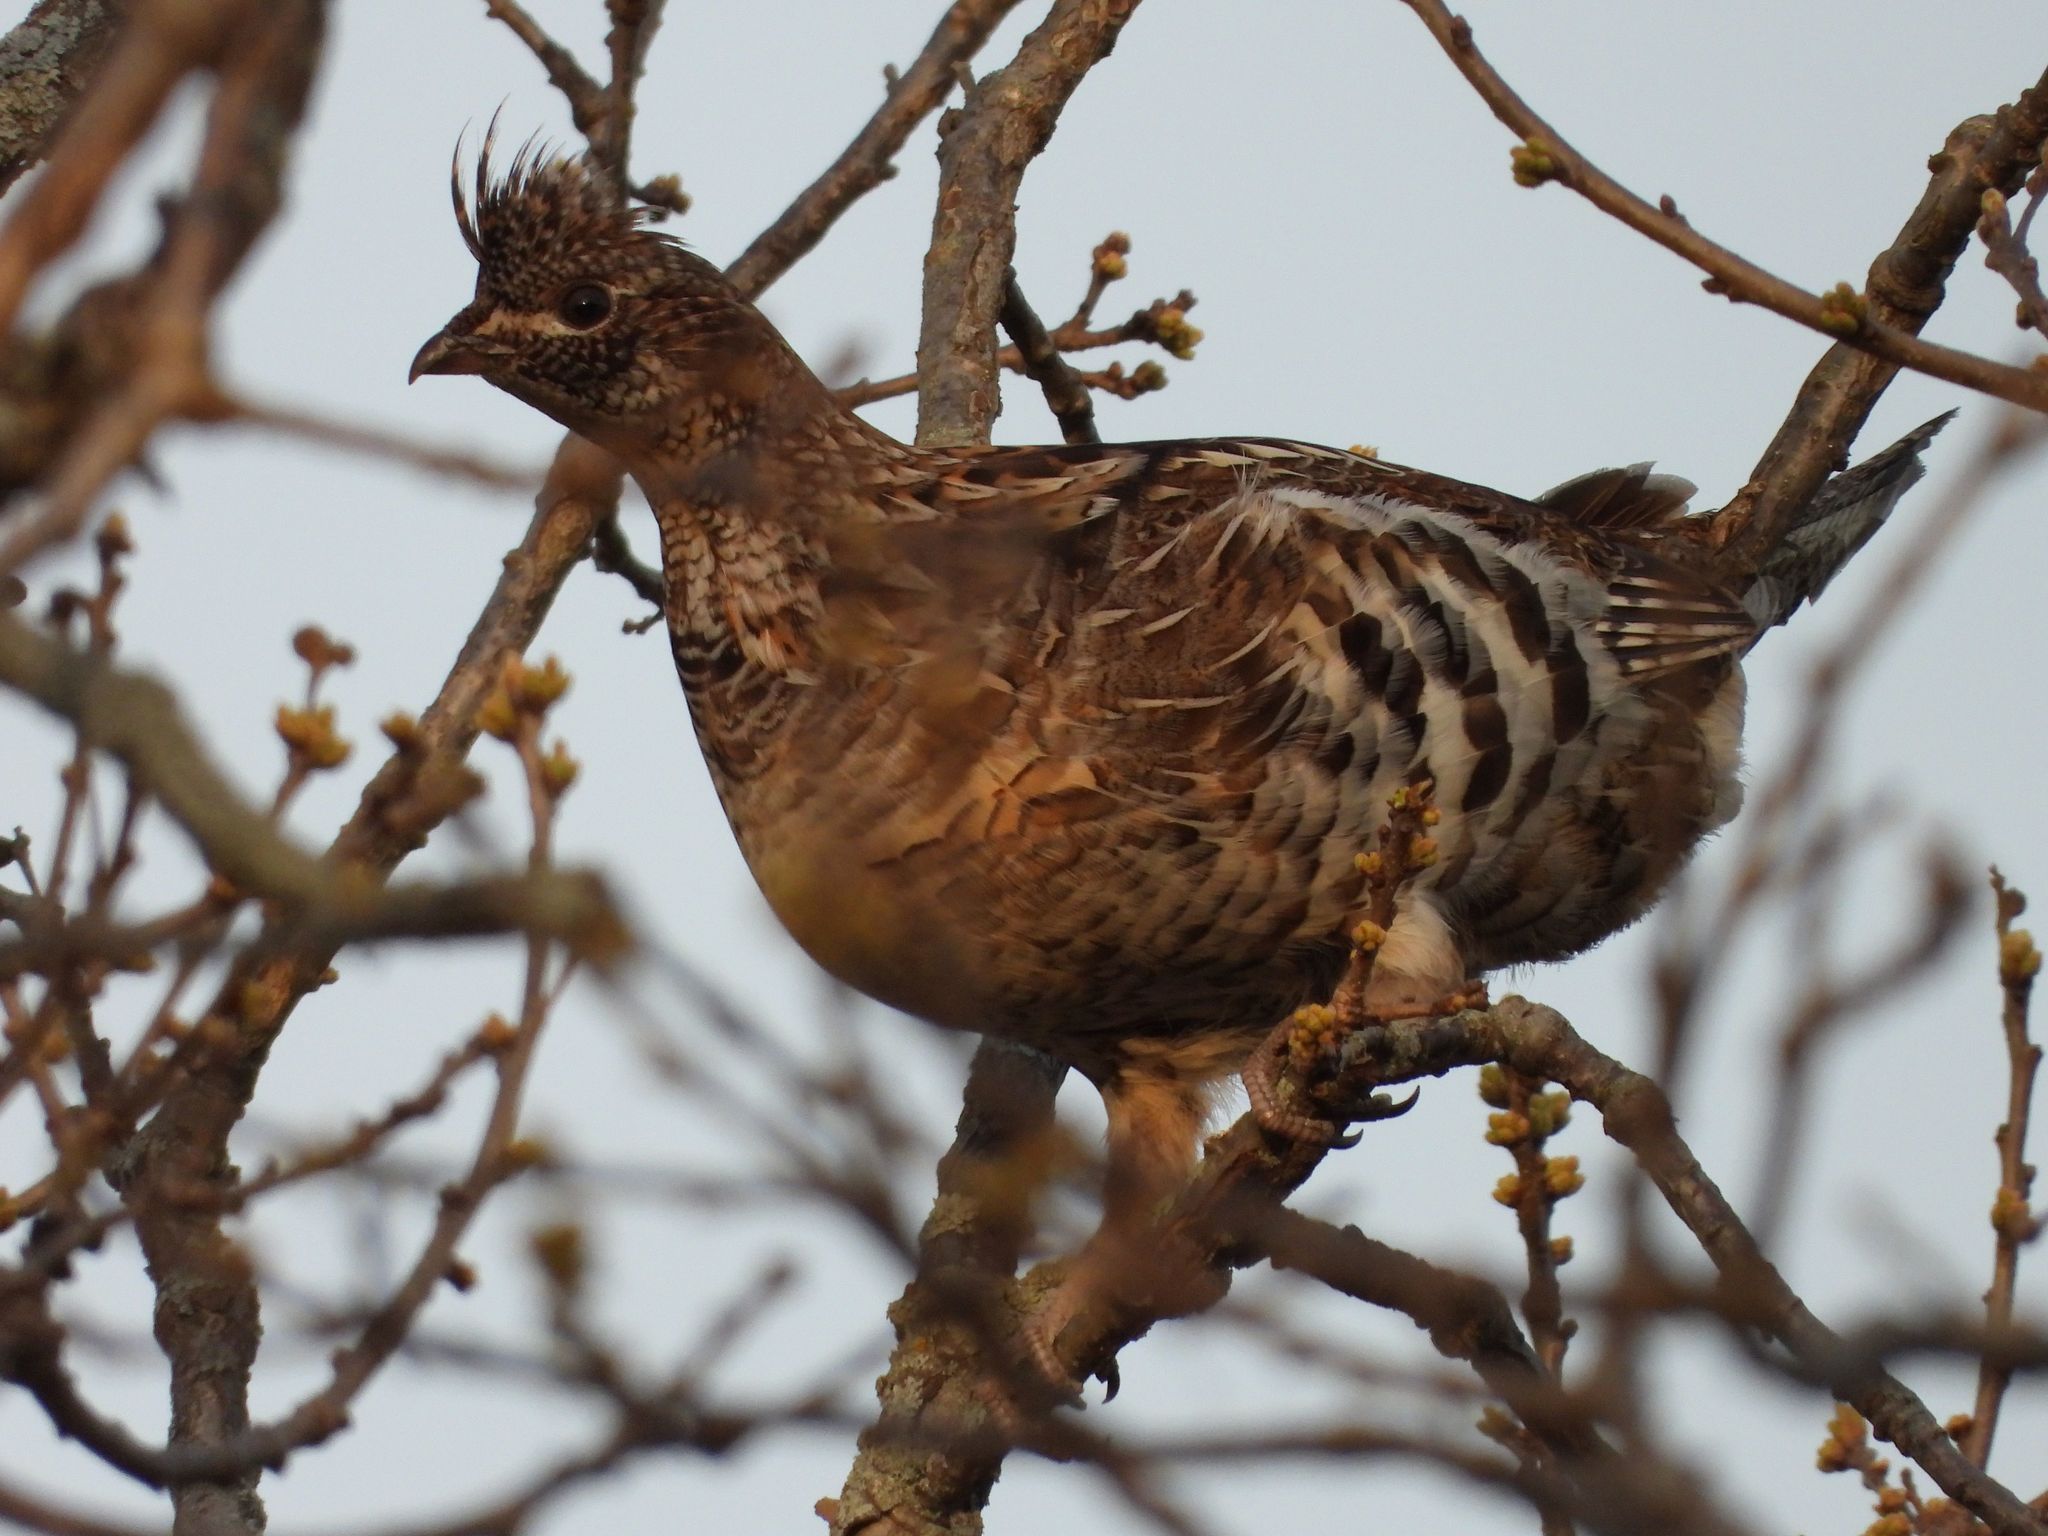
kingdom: Animalia
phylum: Chordata
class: Aves
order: Galliformes
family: Phasianidae
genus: Bonasa
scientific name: Bonasa umbellus
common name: Ruffed grouse
